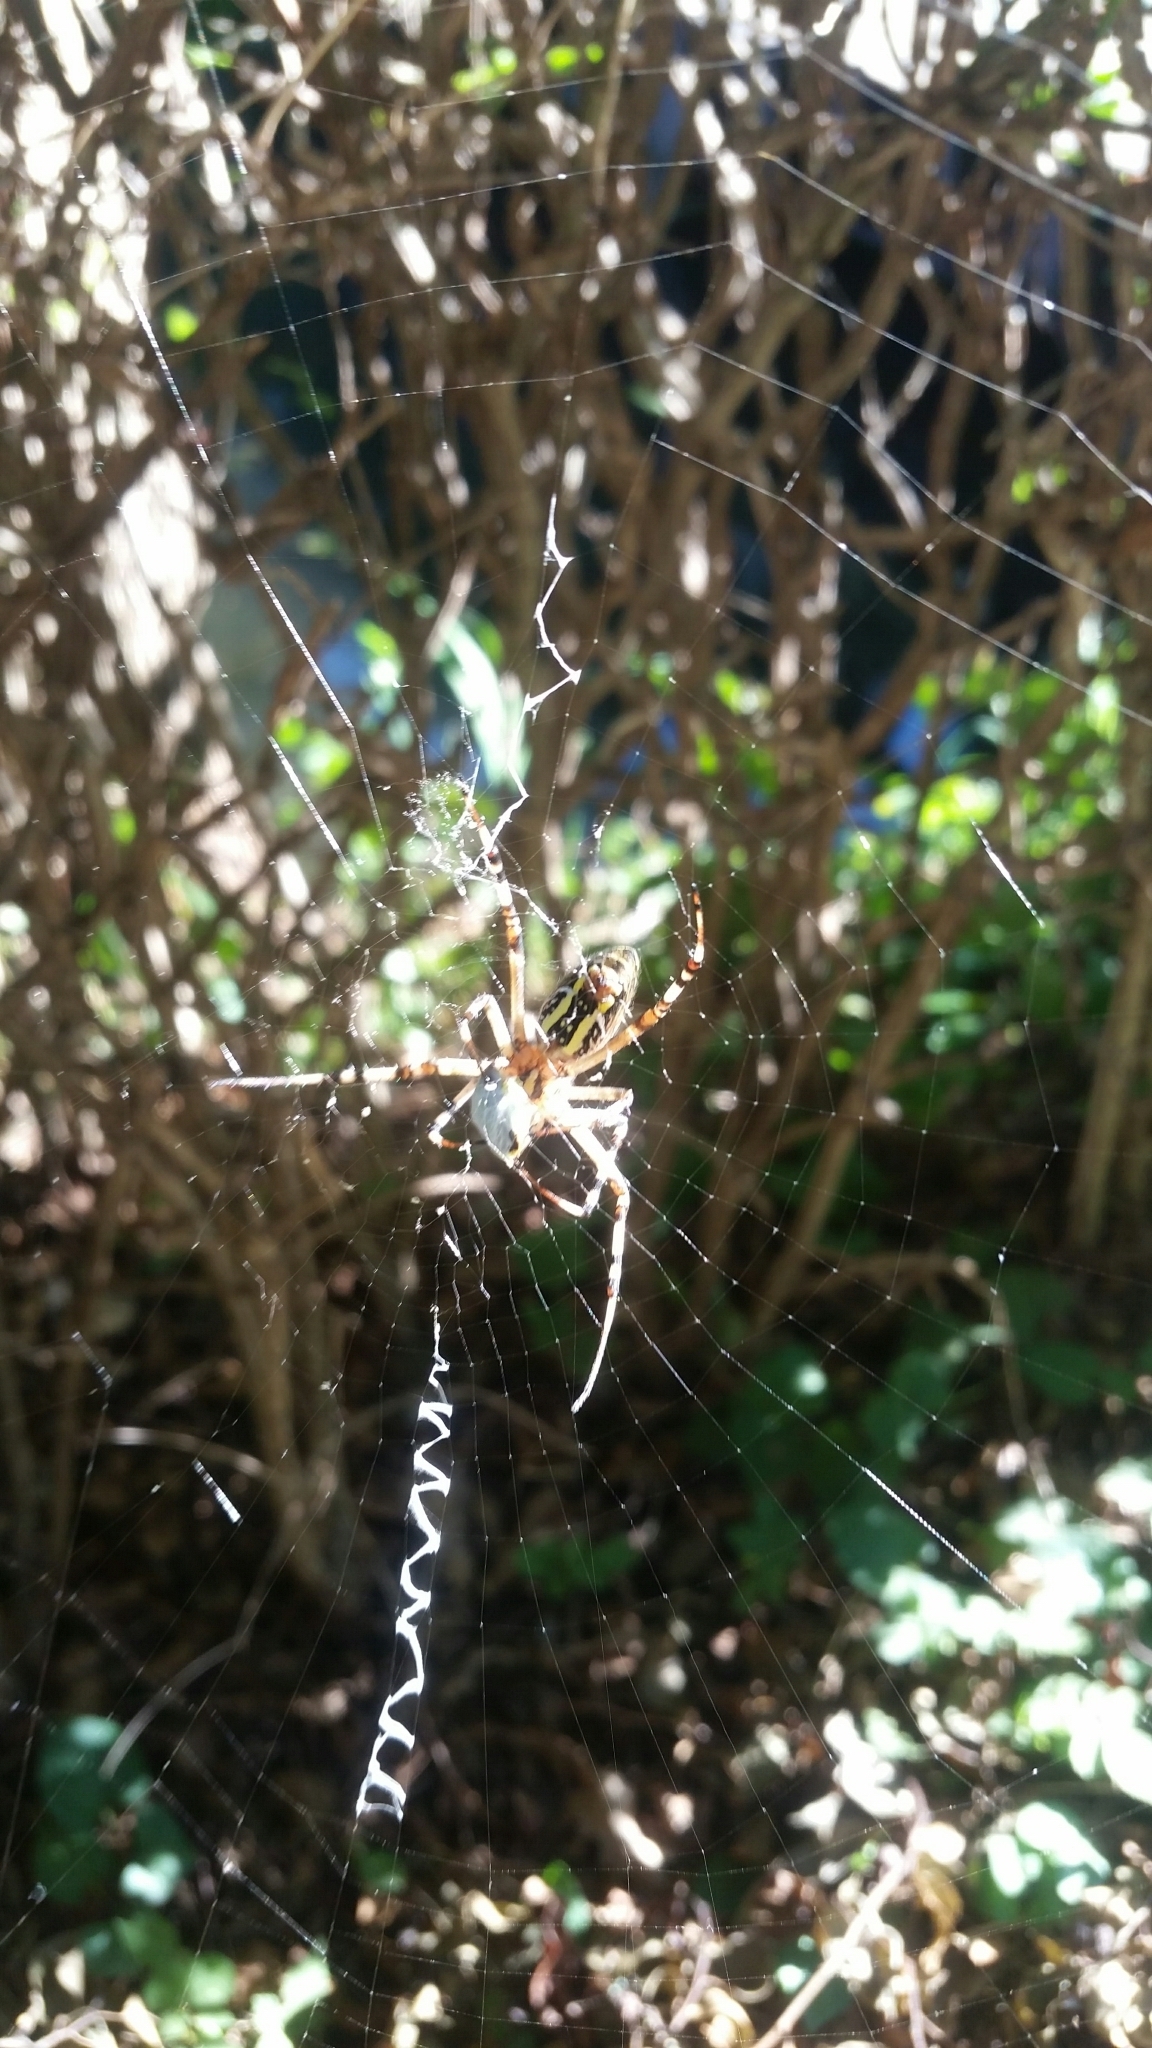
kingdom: Animalia
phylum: Arthropoda
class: Arachnida
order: Araneae
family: Araneidae
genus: Argiope
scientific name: Argiope bruennichi
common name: Wasp spider
